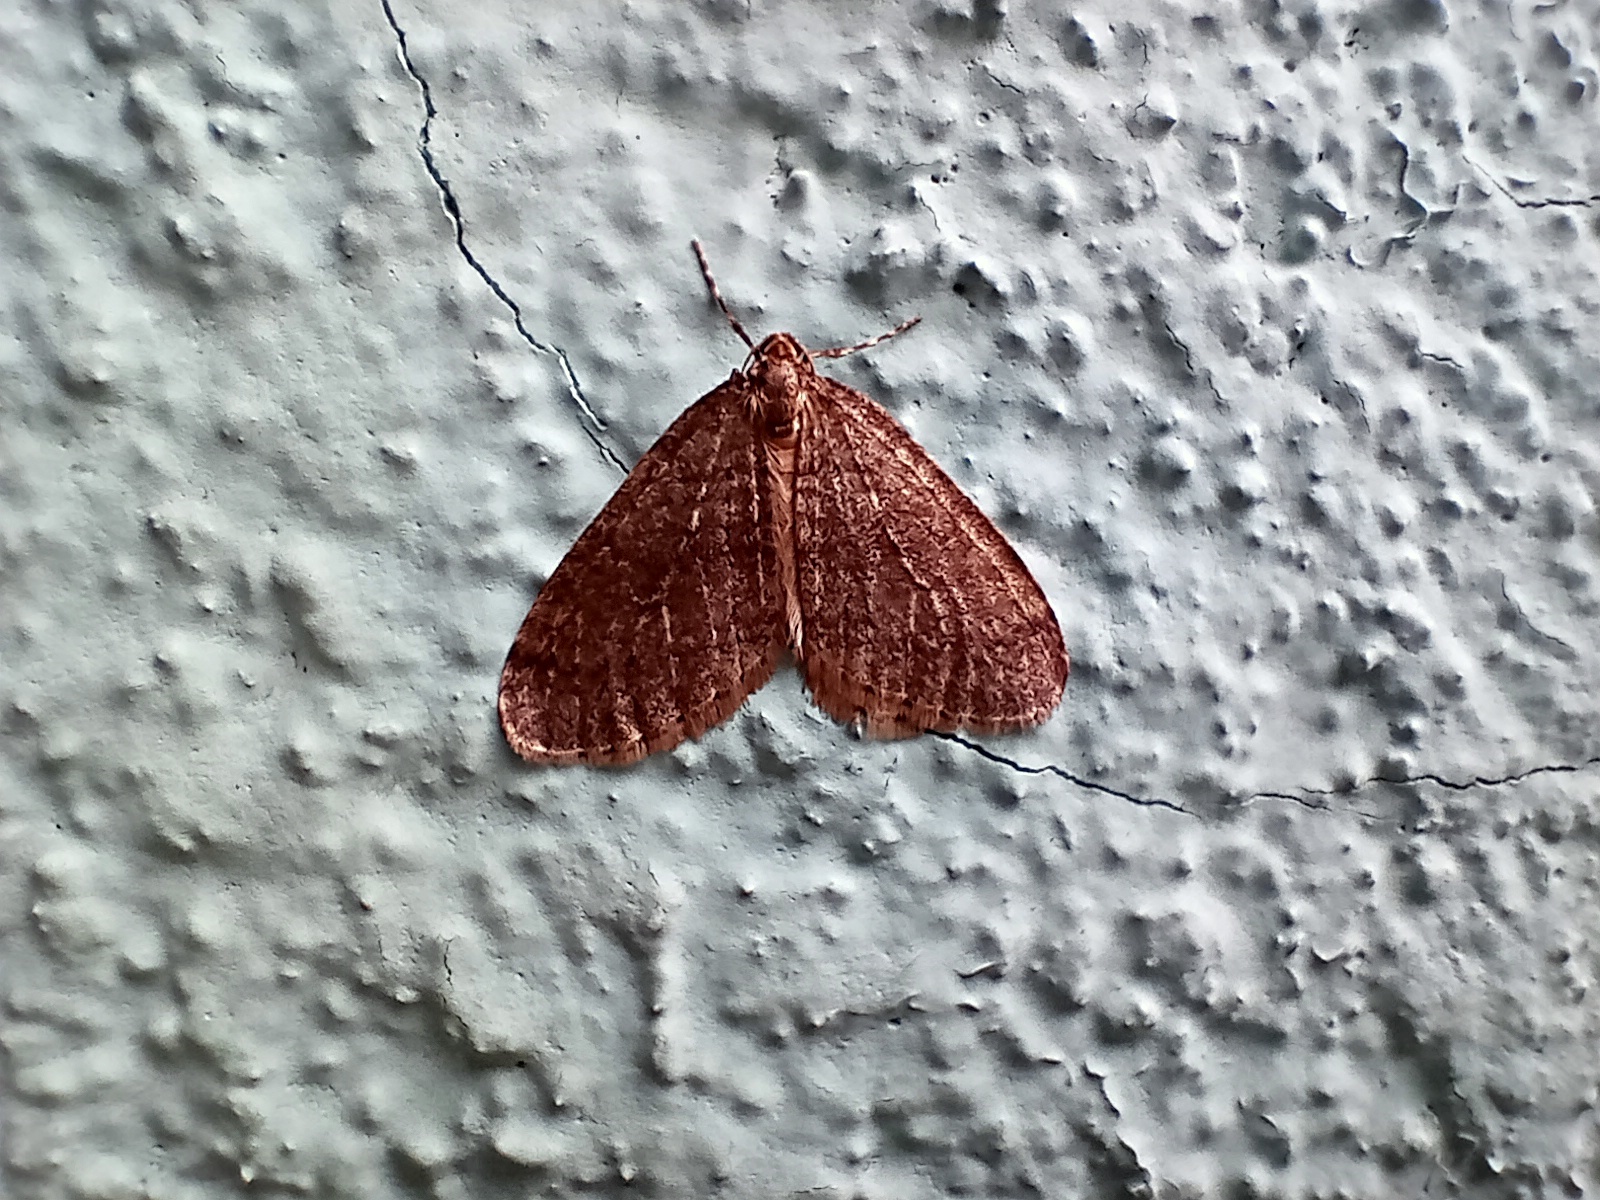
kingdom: Animalia
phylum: Arthropoda
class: Insecta
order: Lepidoptera
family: Geometridae
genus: Operophtera
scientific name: Operophtera brumata
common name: Winter moth
